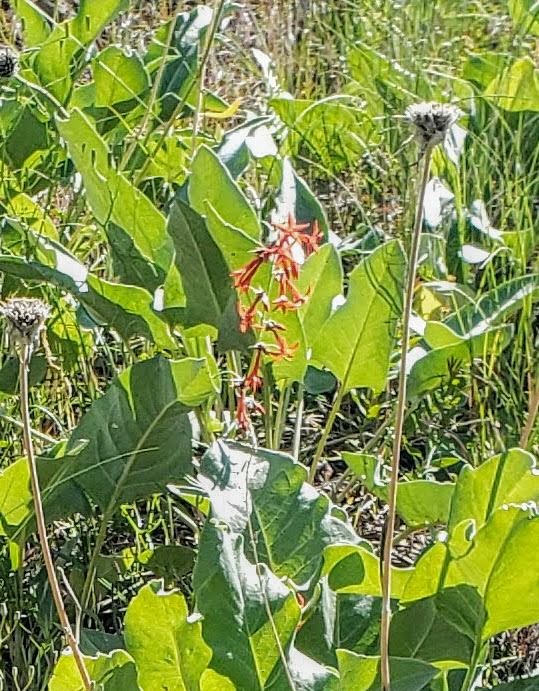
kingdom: Plantae
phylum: Tracheophyta
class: Magnoliopsida
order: Ericales
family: Polemoniaceae
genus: Ipomopsis
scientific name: Ipomopsis aggregata
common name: Scarlet gilia
